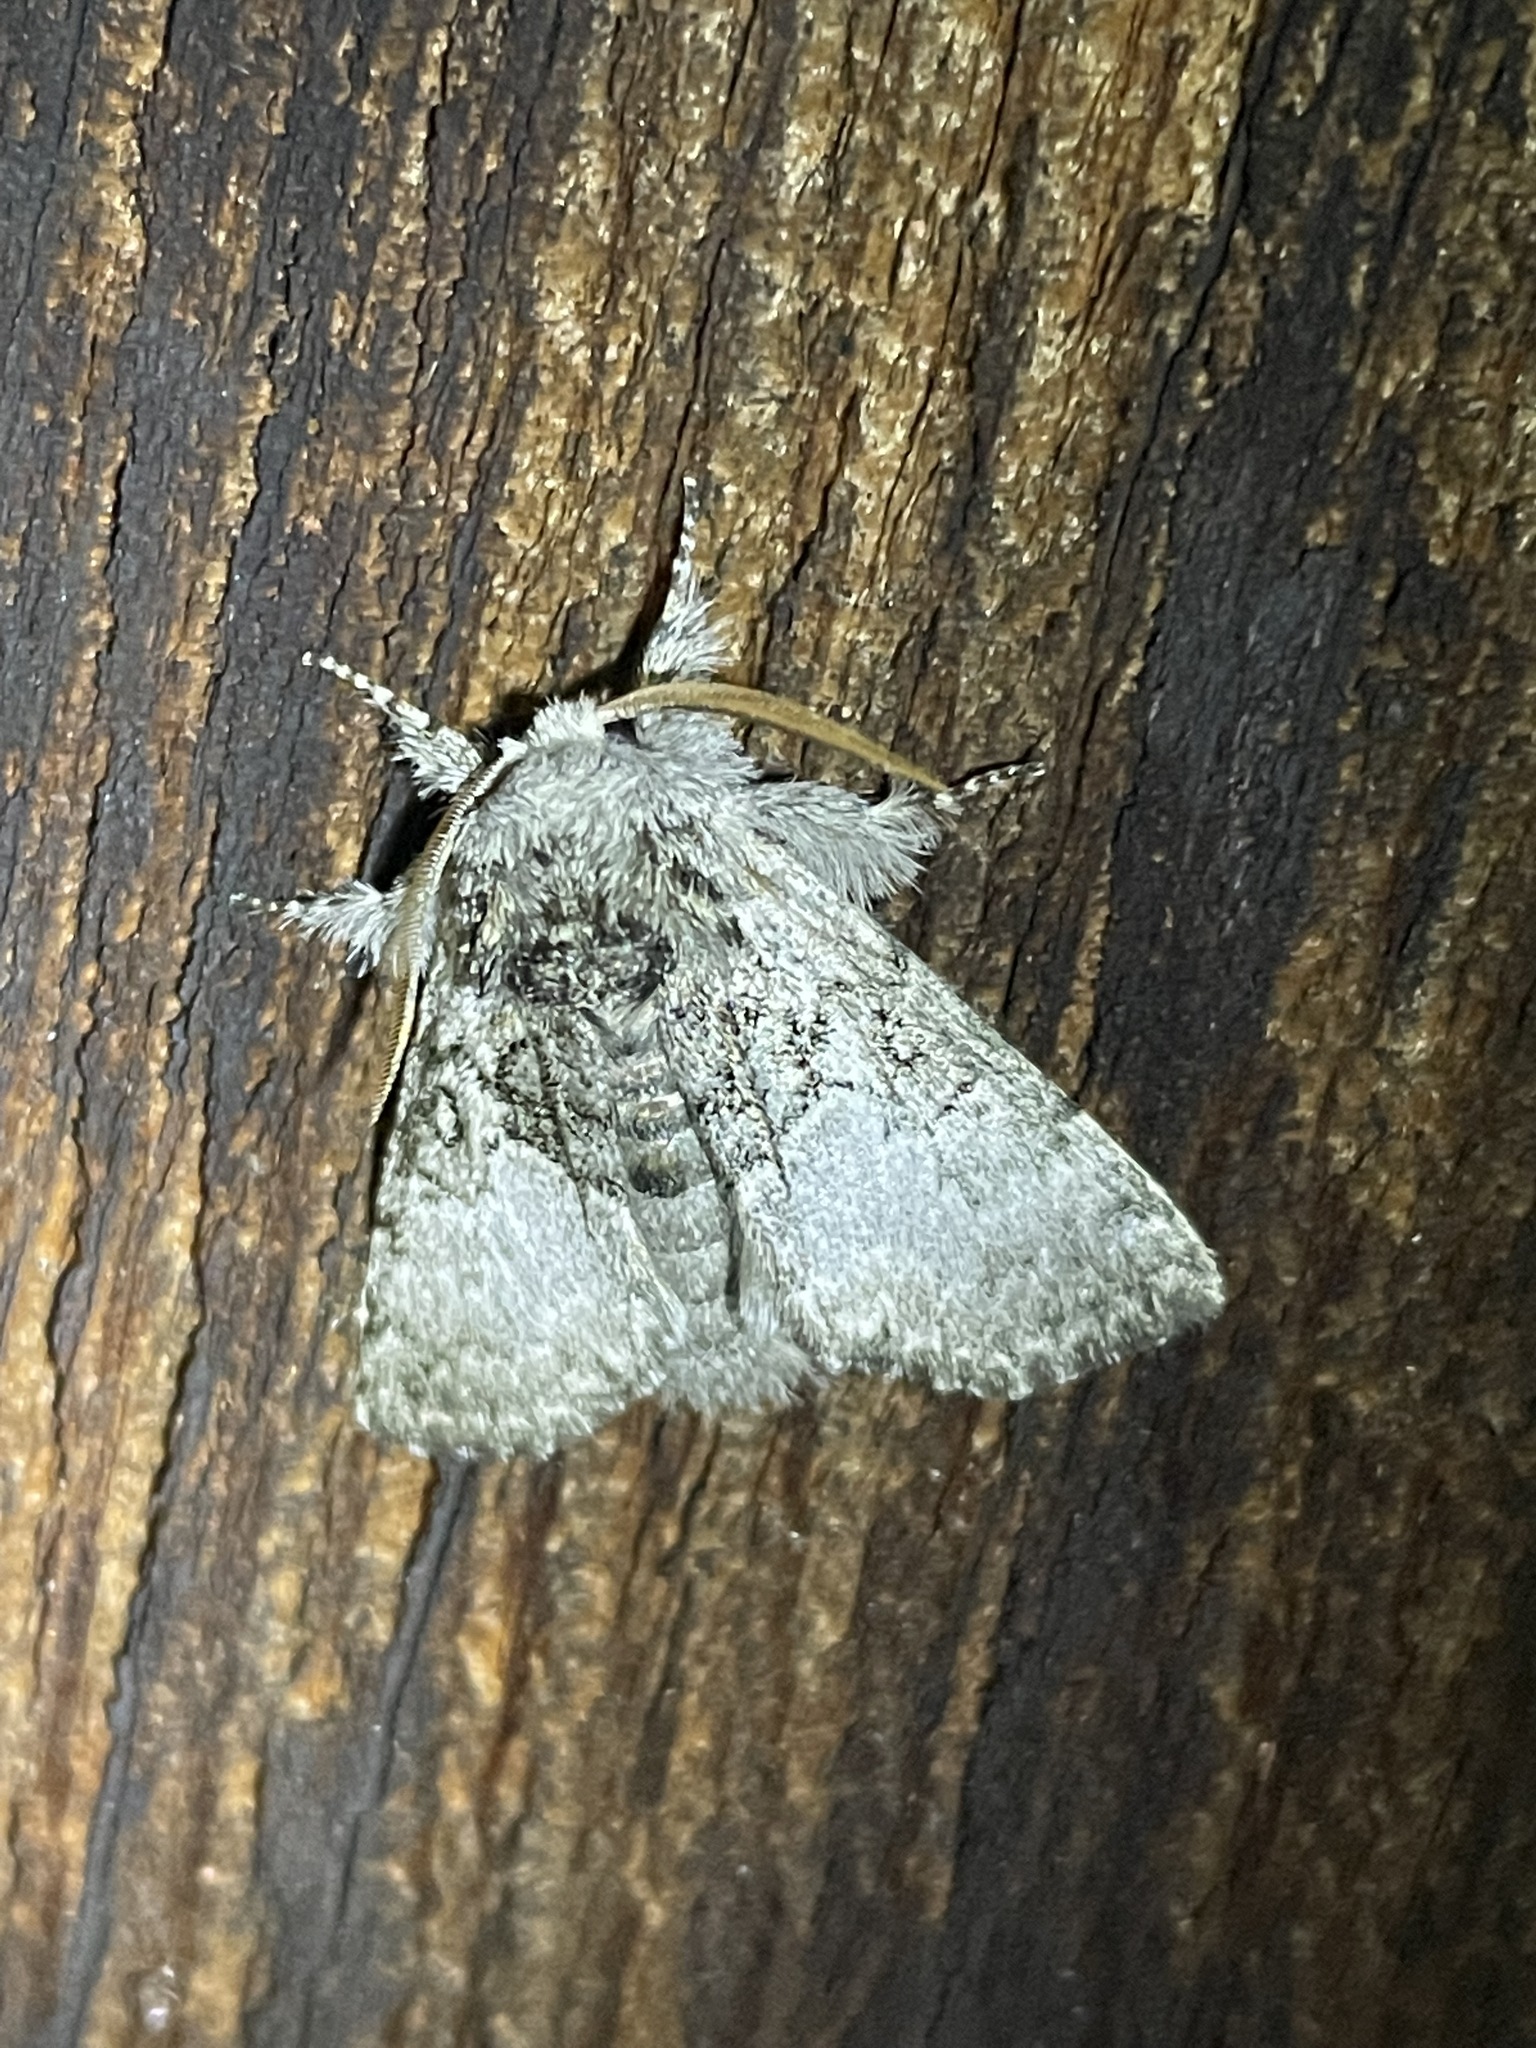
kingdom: Animalia
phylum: Arthropoda
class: Insecta
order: Lepidoptera
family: Noctuidae
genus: Colocasia
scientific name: Colocasia flavicornis
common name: Saddled yellowhorn
